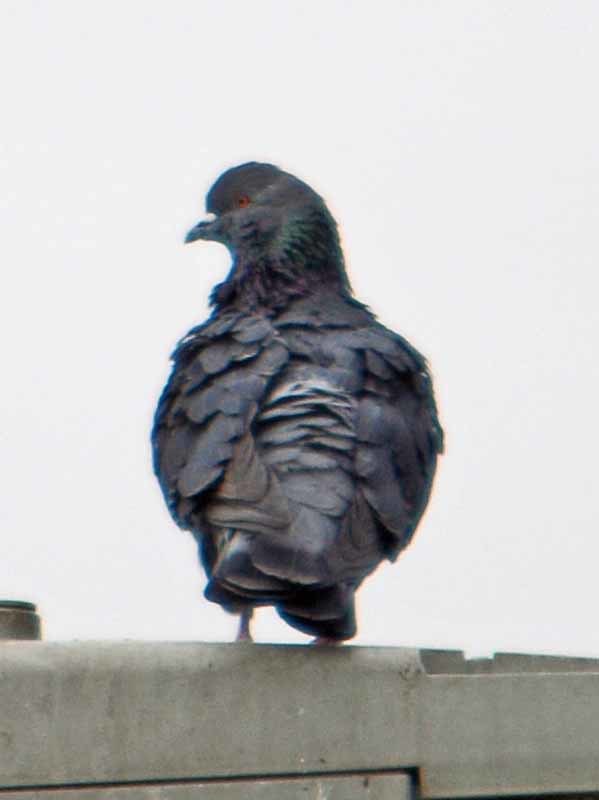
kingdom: Animalia
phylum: Chordata
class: Aves
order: Columbiformes
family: Columbidae
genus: Columba
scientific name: Columba livia
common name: Rock pigeon
